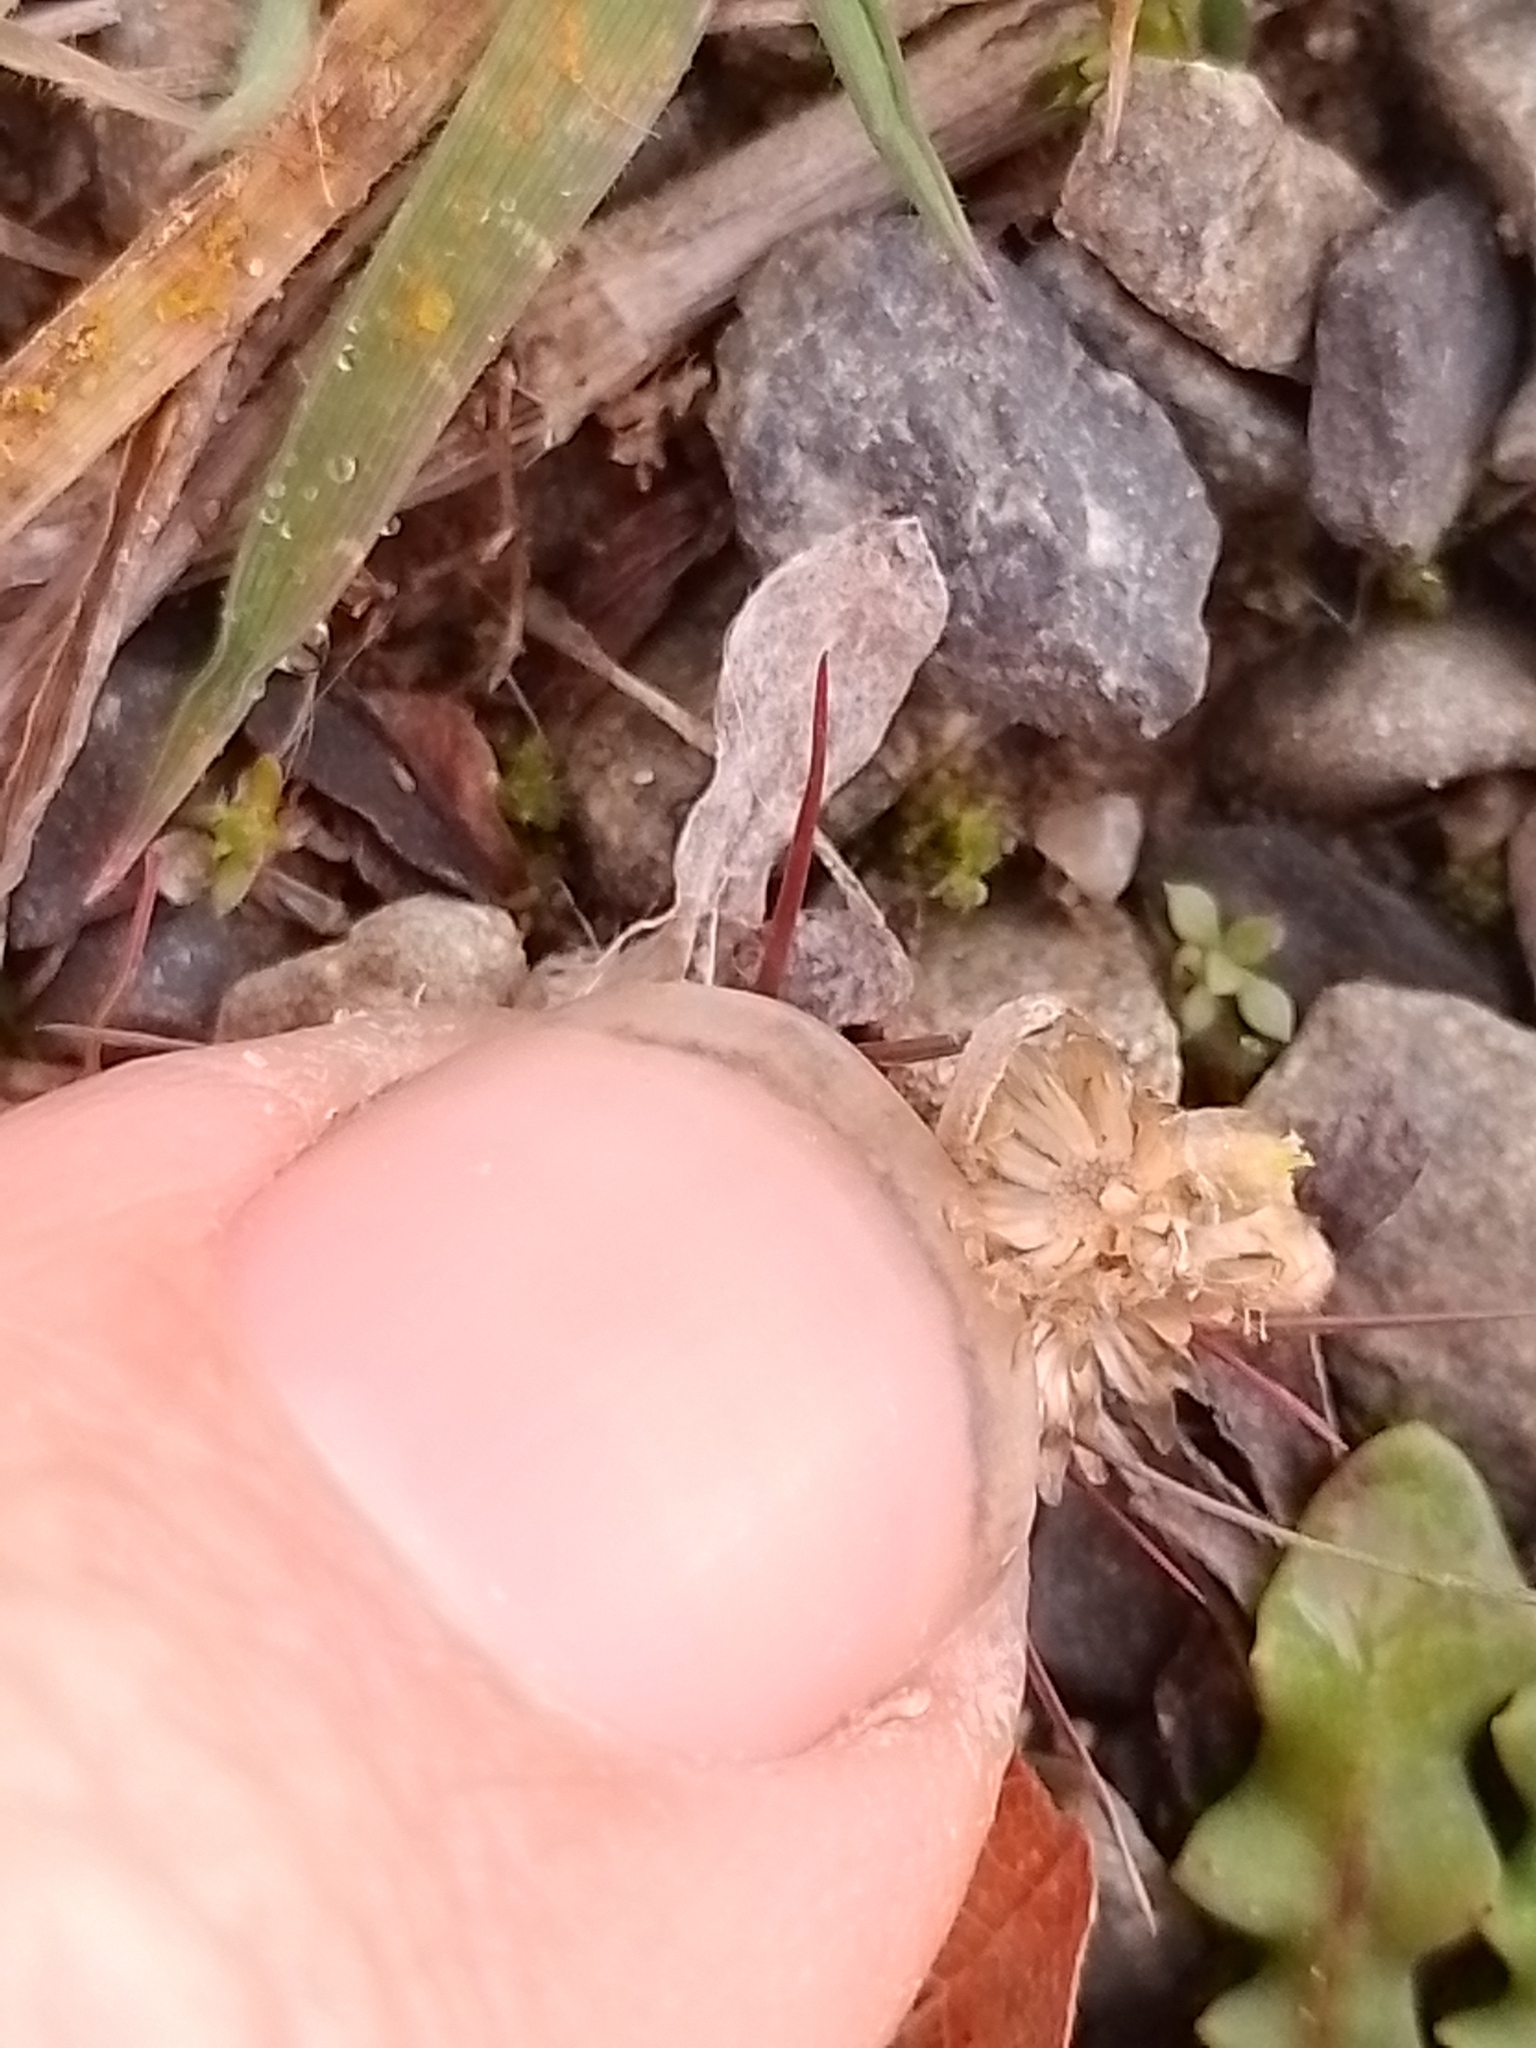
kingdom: Plantae
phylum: Tracheophyta
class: Magnoliopsida
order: Asterales
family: Asteraceae
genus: Pseudognaphalium
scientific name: Pseudognaphalium ephemerum
